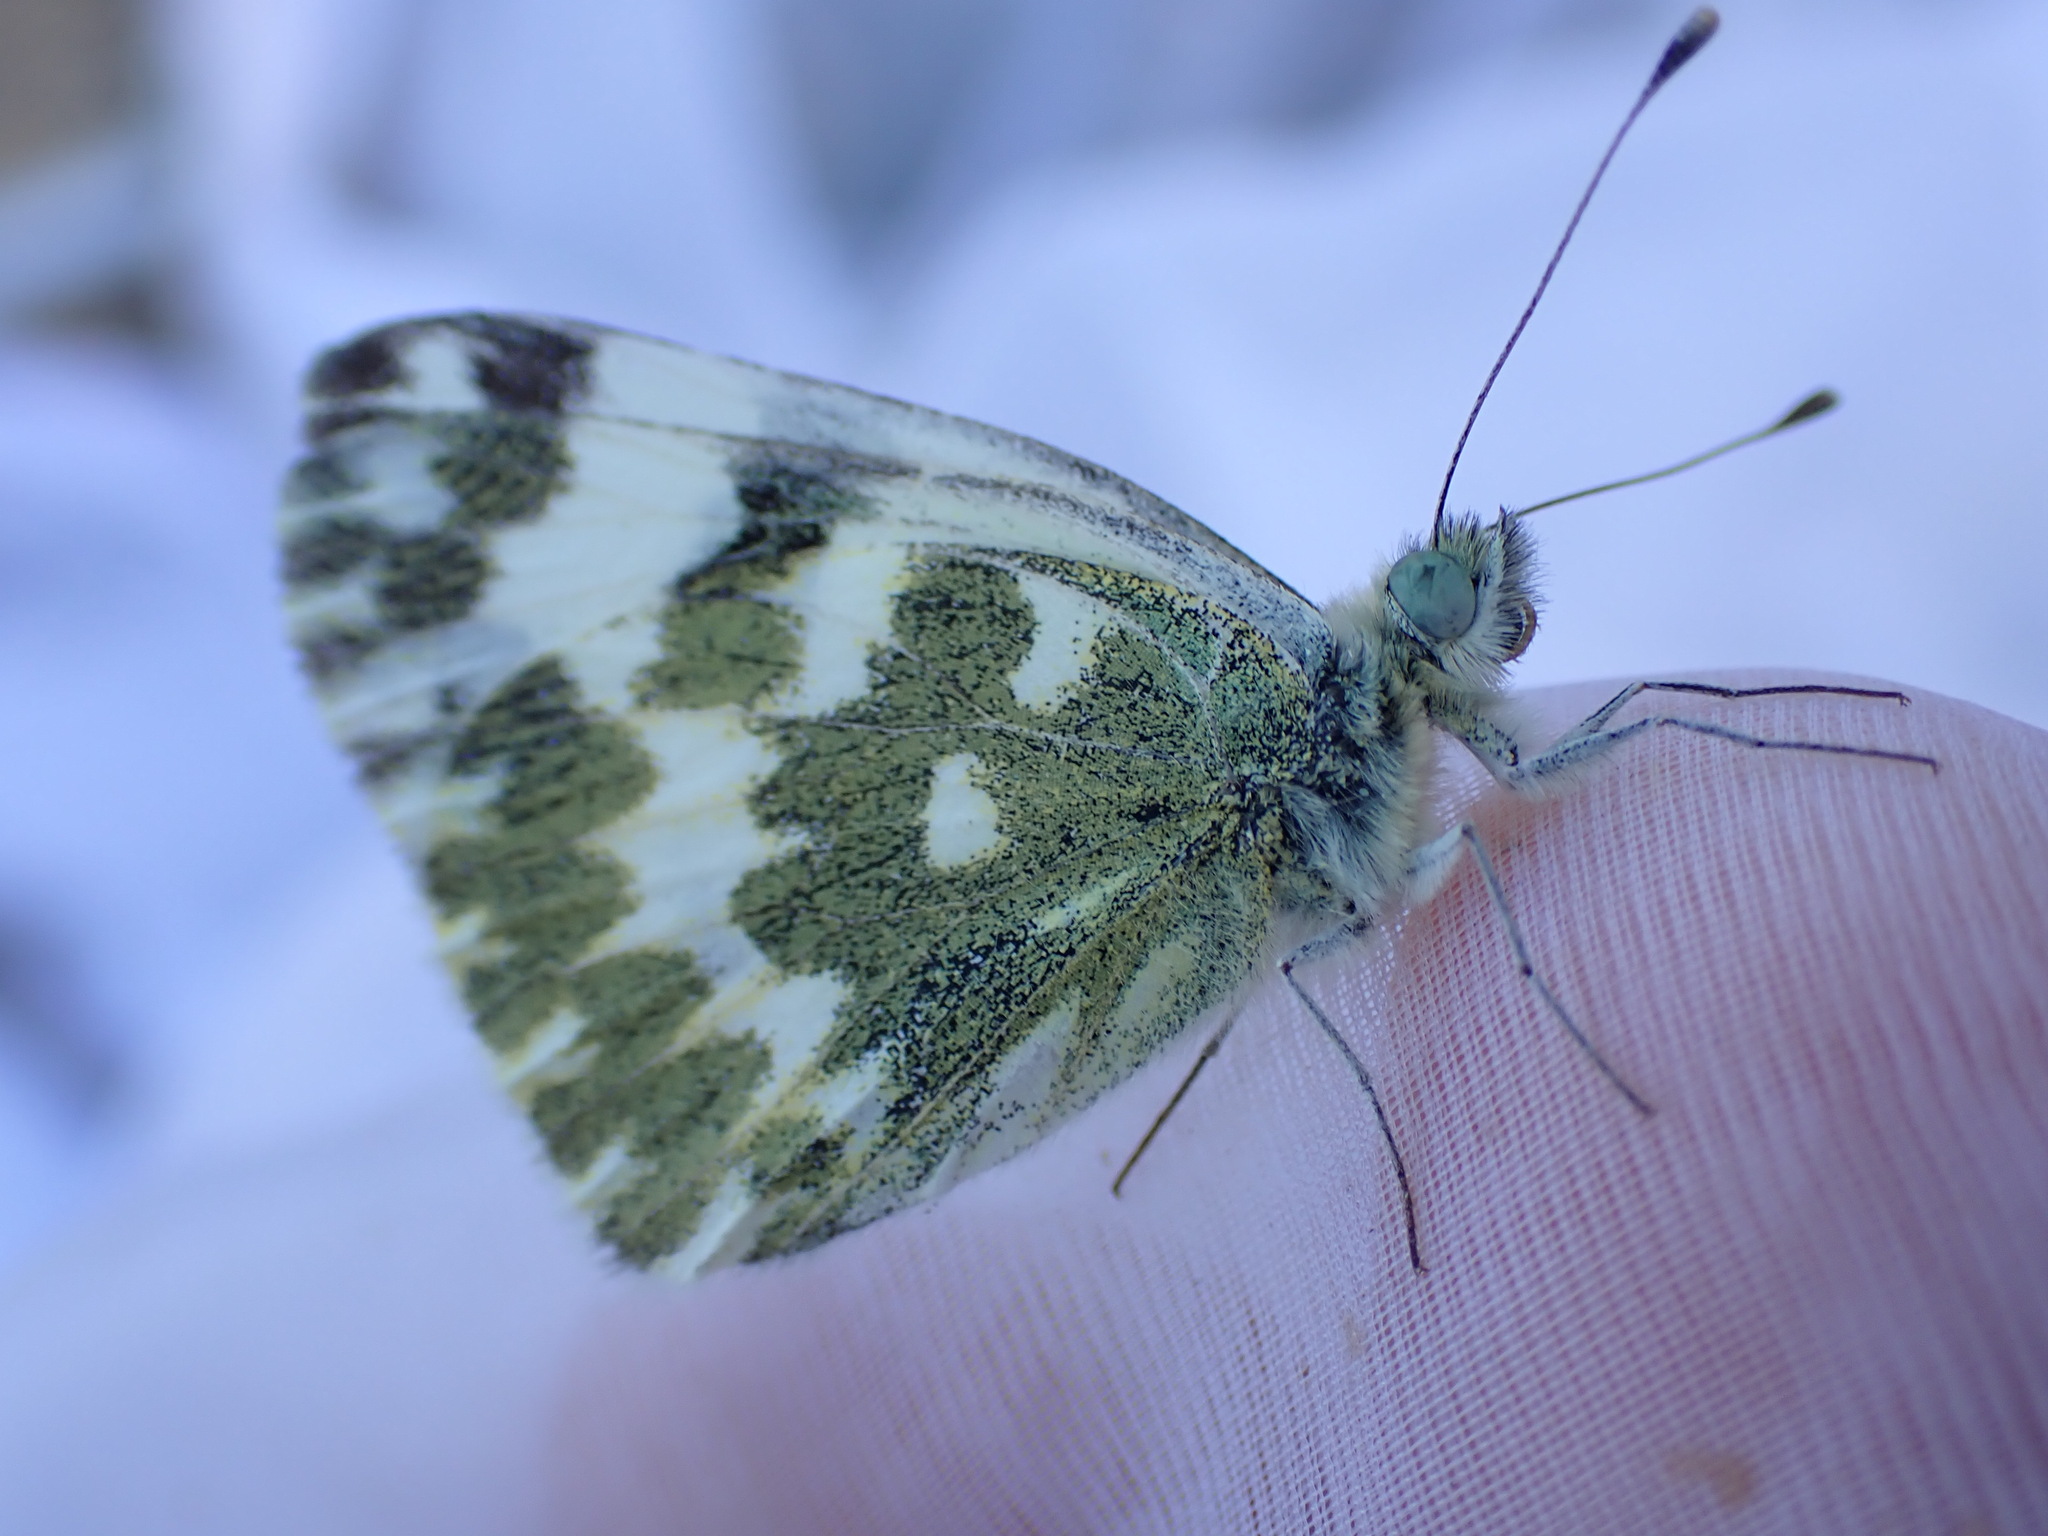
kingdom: Animalia
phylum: Arthropoda
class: Insecta
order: Lepidoptera
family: Pieridae
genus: Pontia
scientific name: Pontia daplidice
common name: Bath white
